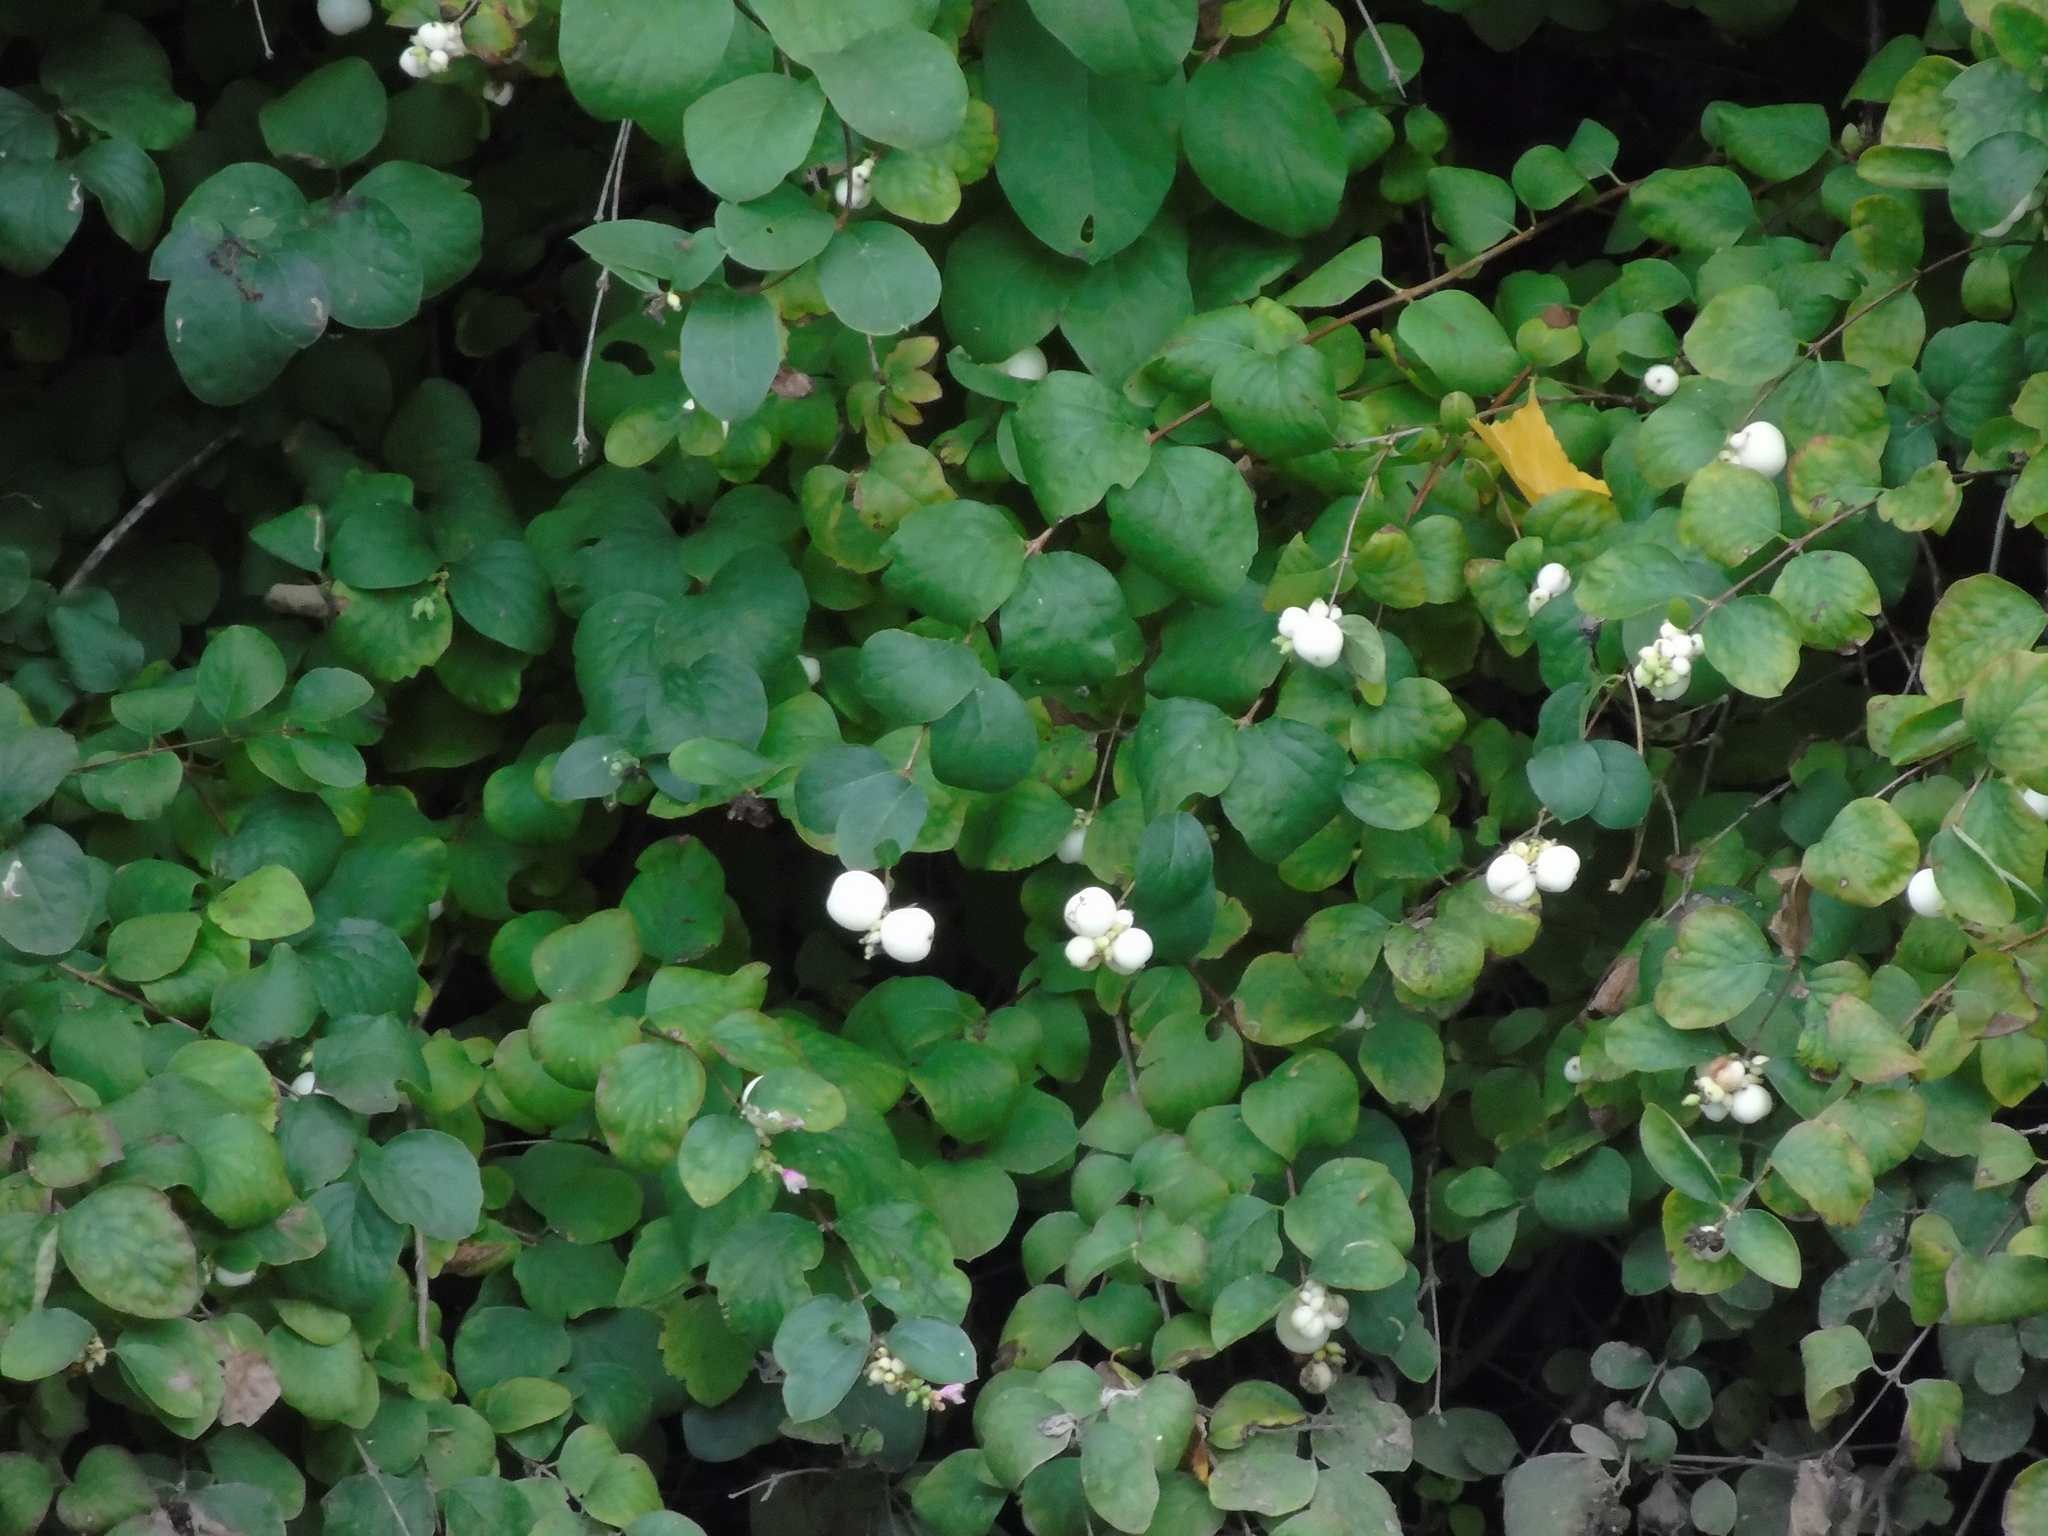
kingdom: Plantae
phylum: Tracheophyta
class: Magnoliopsida
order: Dipsacales
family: Caprifoliaceae
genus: Symphoricarpos
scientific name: Symphoricarpos albus
